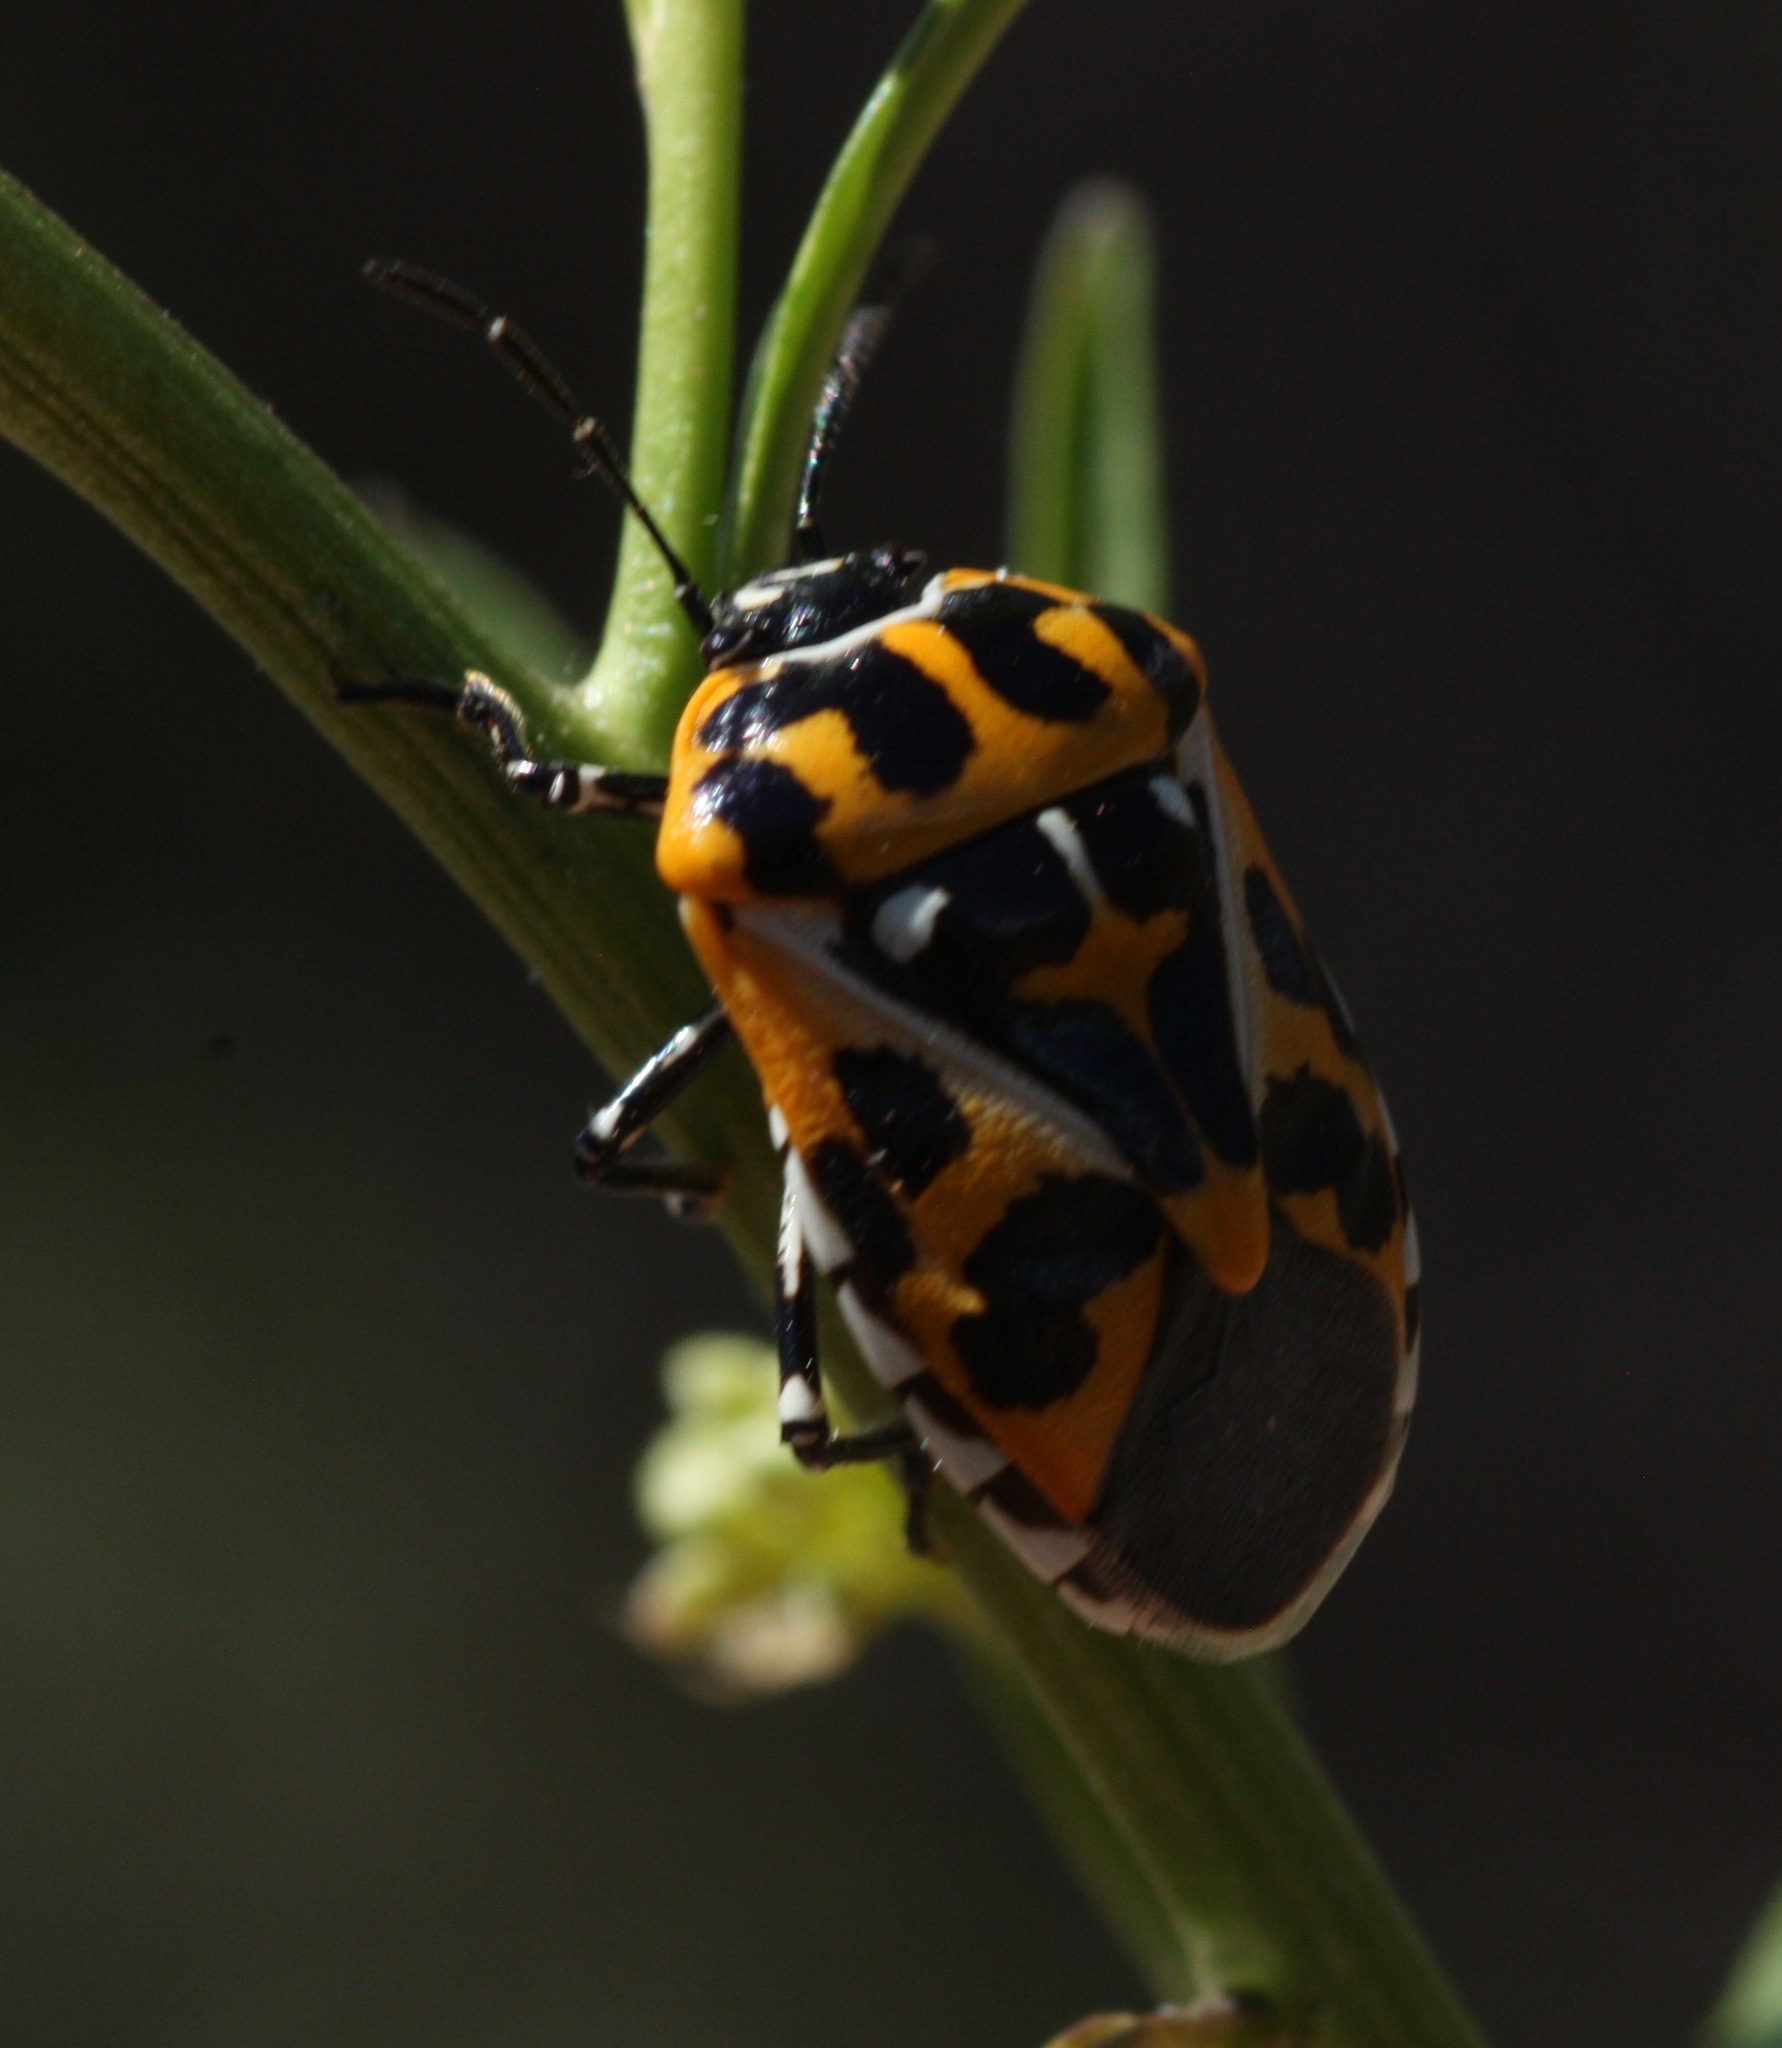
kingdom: Animalia
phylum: Arthropoda
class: Insecta
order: Hemiptera
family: Pentatomidae
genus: Murgantia
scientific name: Murgantia histrionica
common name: Harlequin bug
